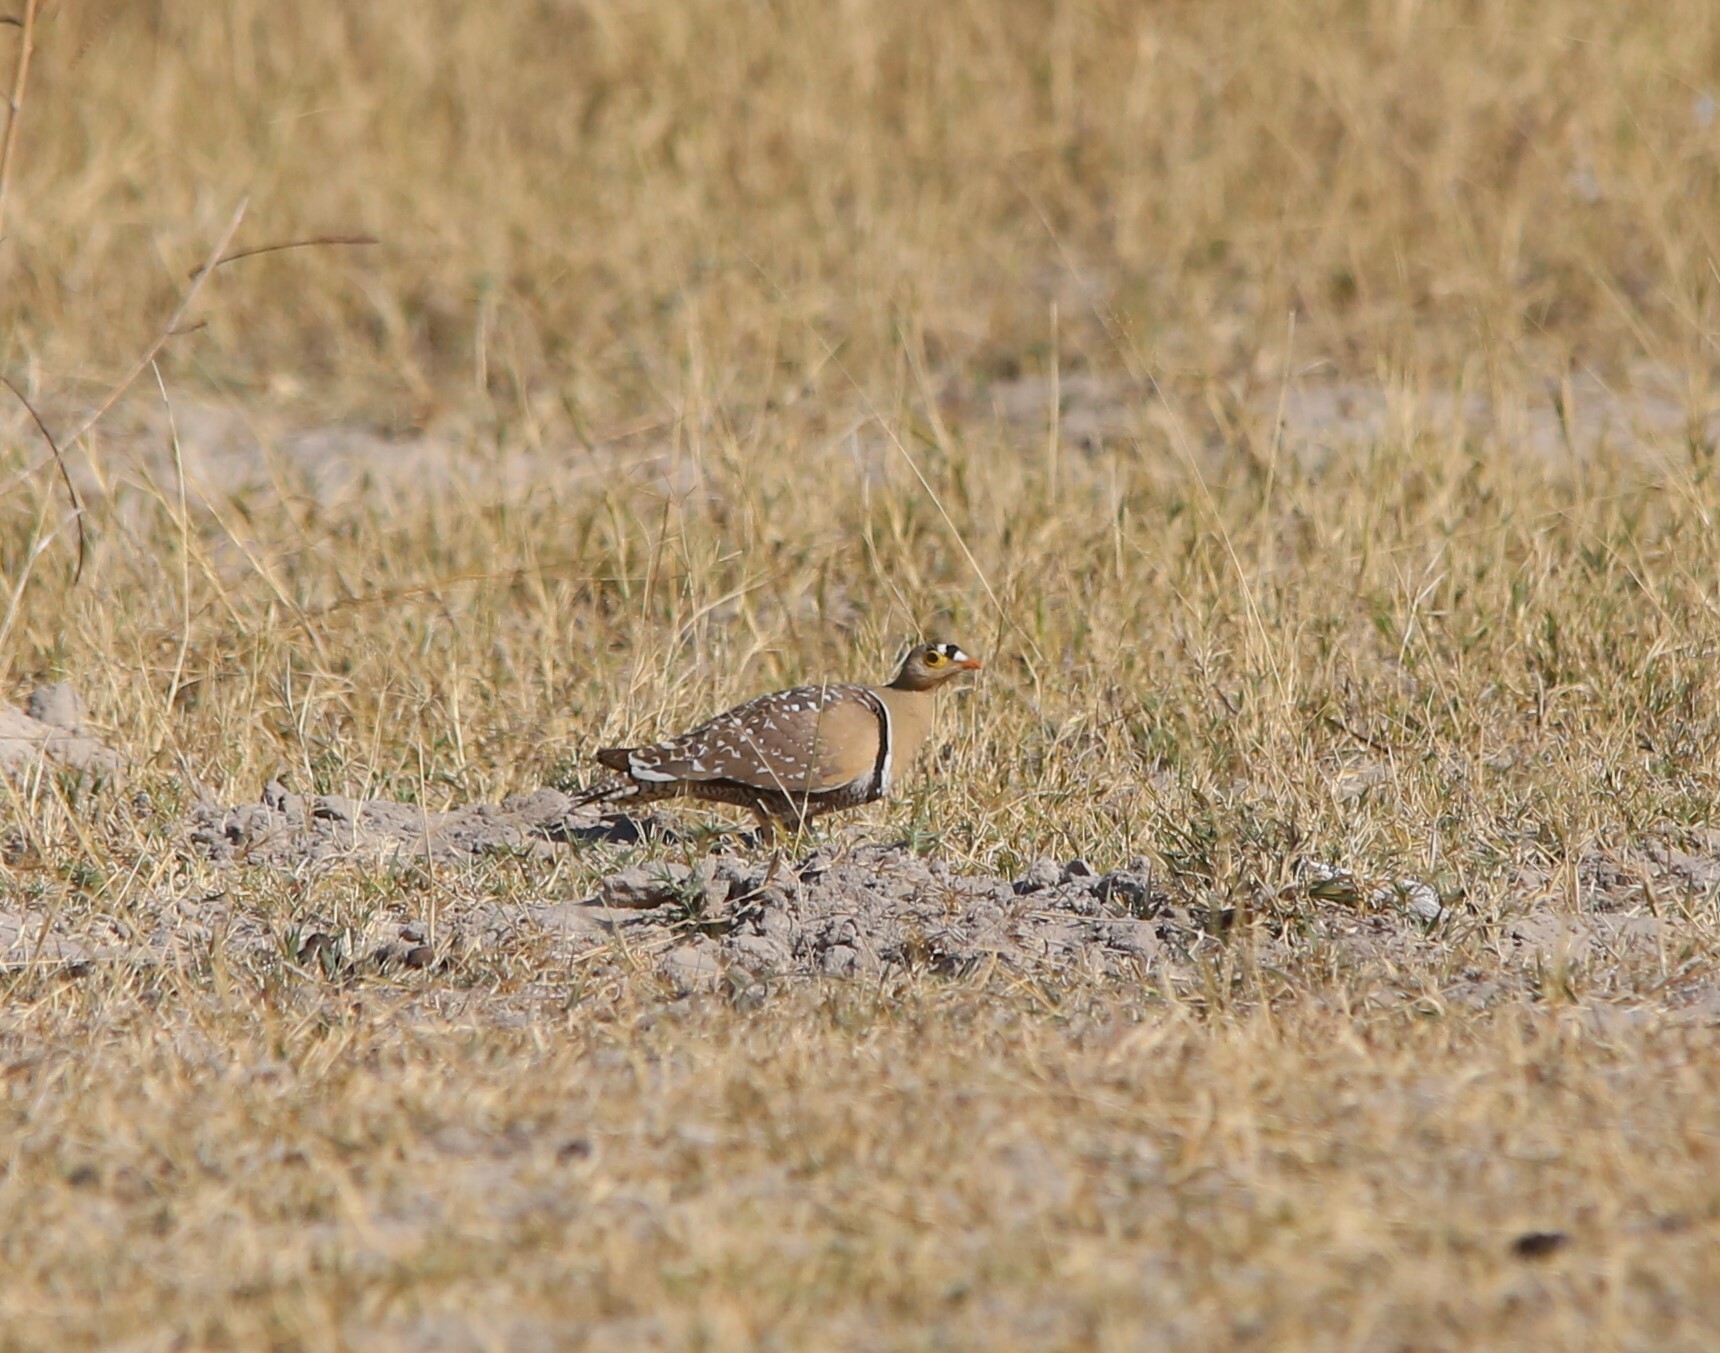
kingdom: Animalia
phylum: Chordata
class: Aves
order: Pteroclidiformes
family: Pteroclididae
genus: Pterocles
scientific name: Pterocles bicinctus
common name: Double-banded sandgrouse
